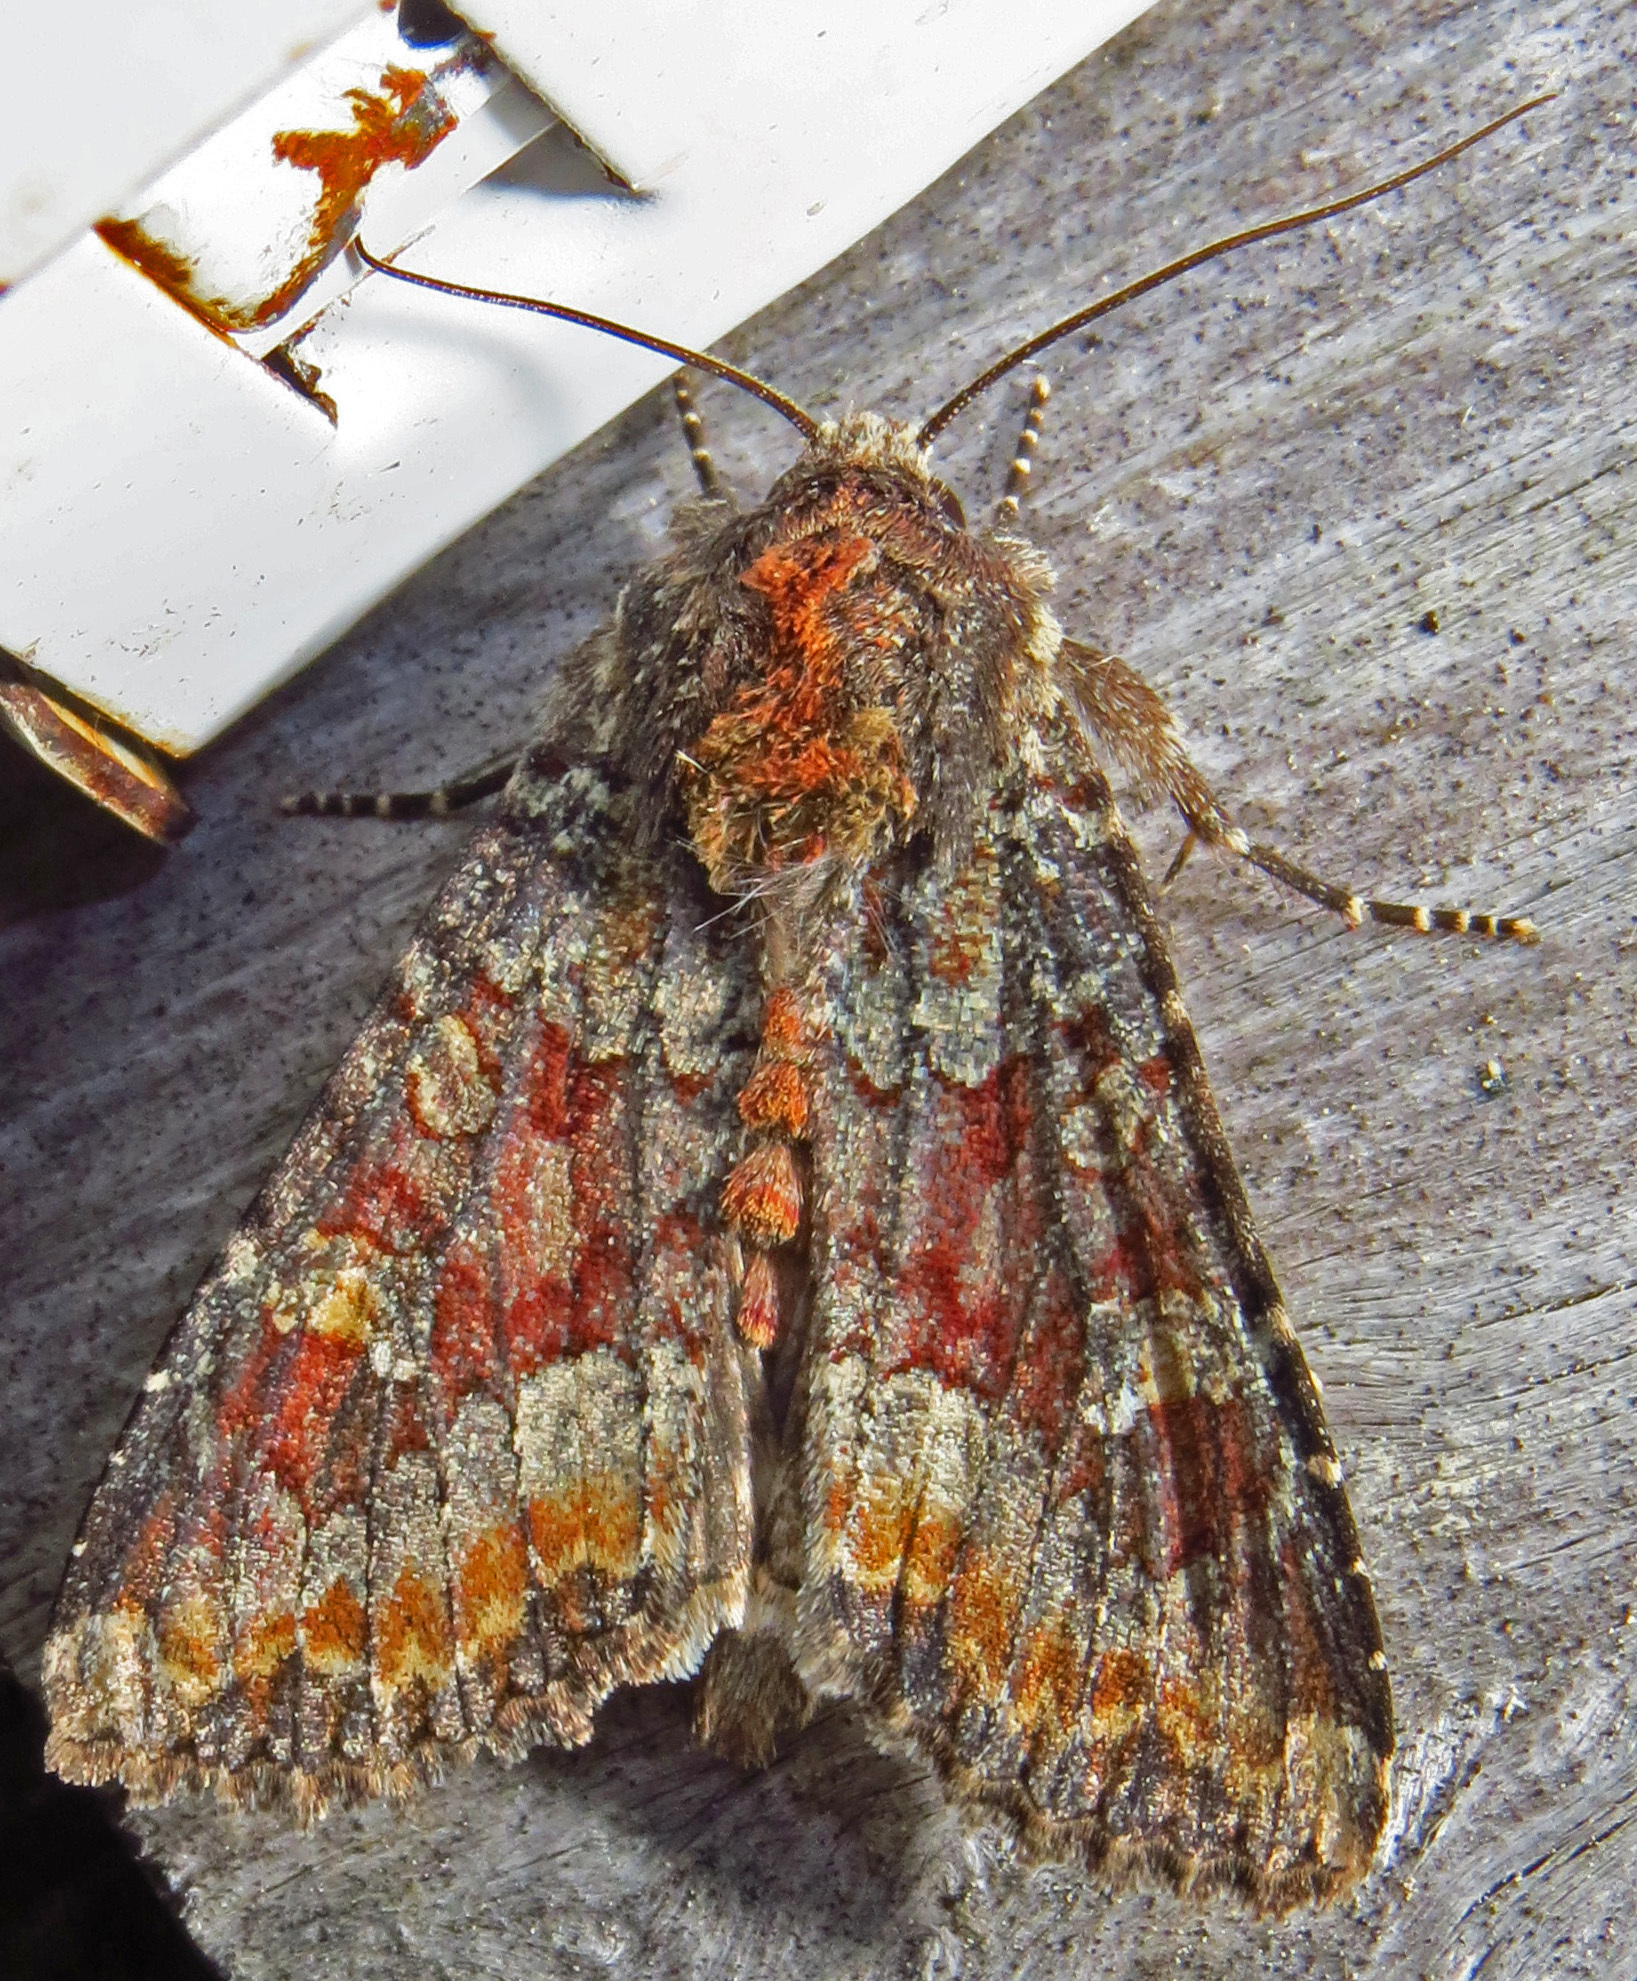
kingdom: Animalia
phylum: Arthropoda
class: Insecta
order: Lepidoptera
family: Noctuidae
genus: Apamea
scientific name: Apamea amputatrix
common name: Yellow-headed cutworm moth
